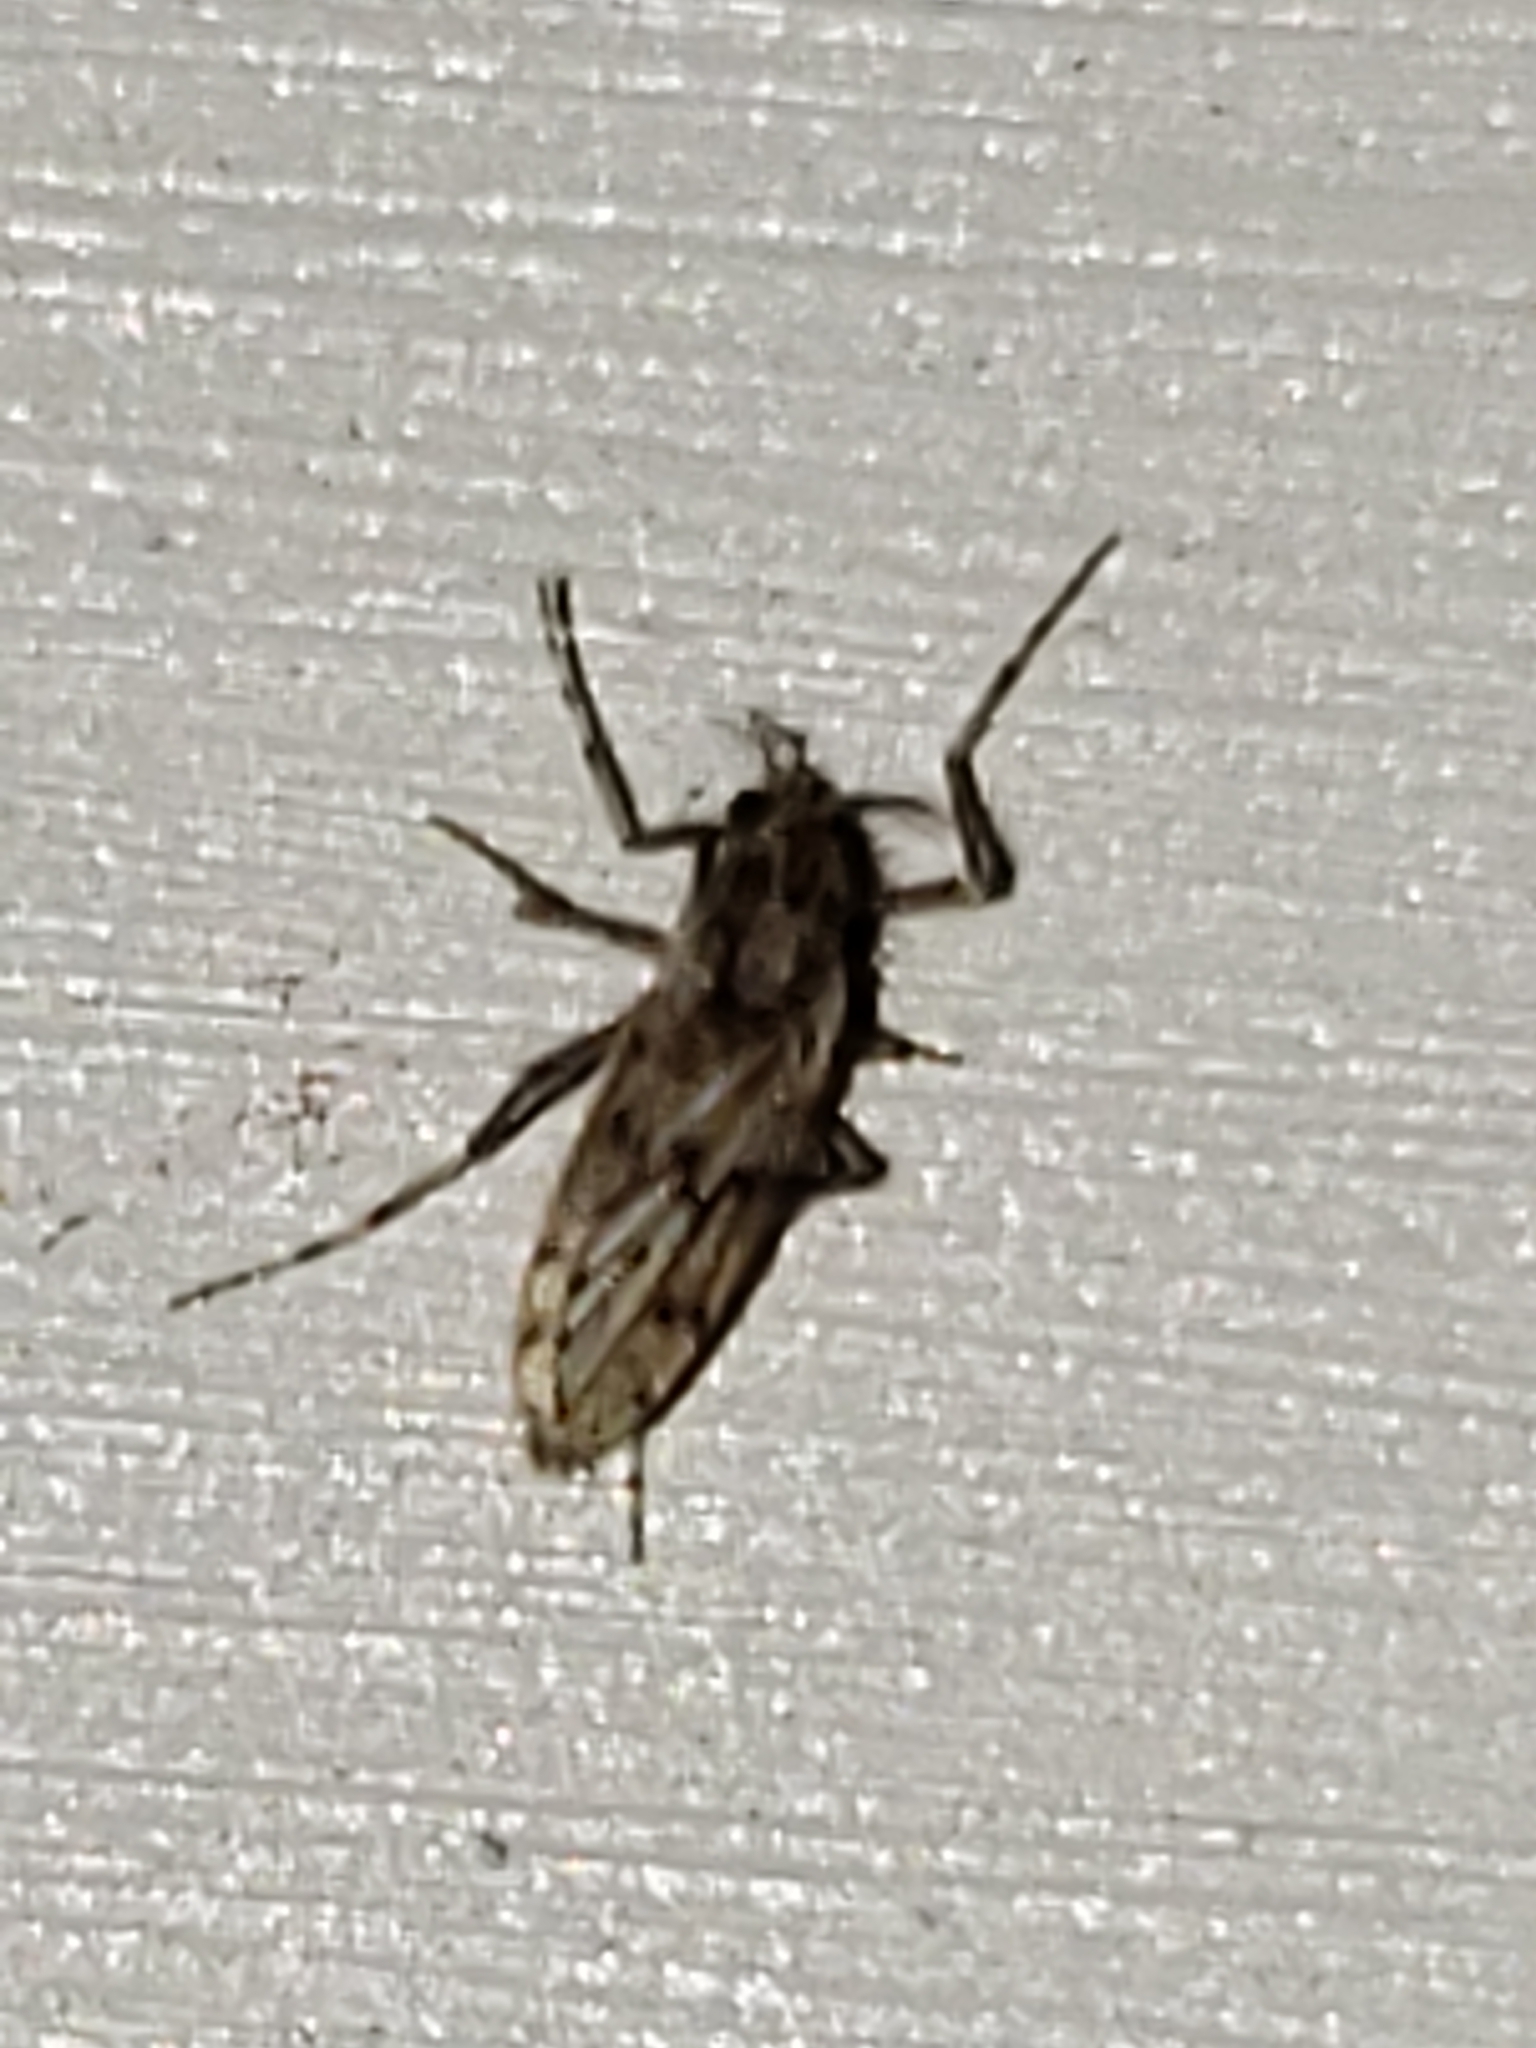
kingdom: Animalia
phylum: Arthropoda
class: Insecta
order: Diptera
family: Chaoboridae
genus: Chaoborus
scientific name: Chaoborus punctipennis
